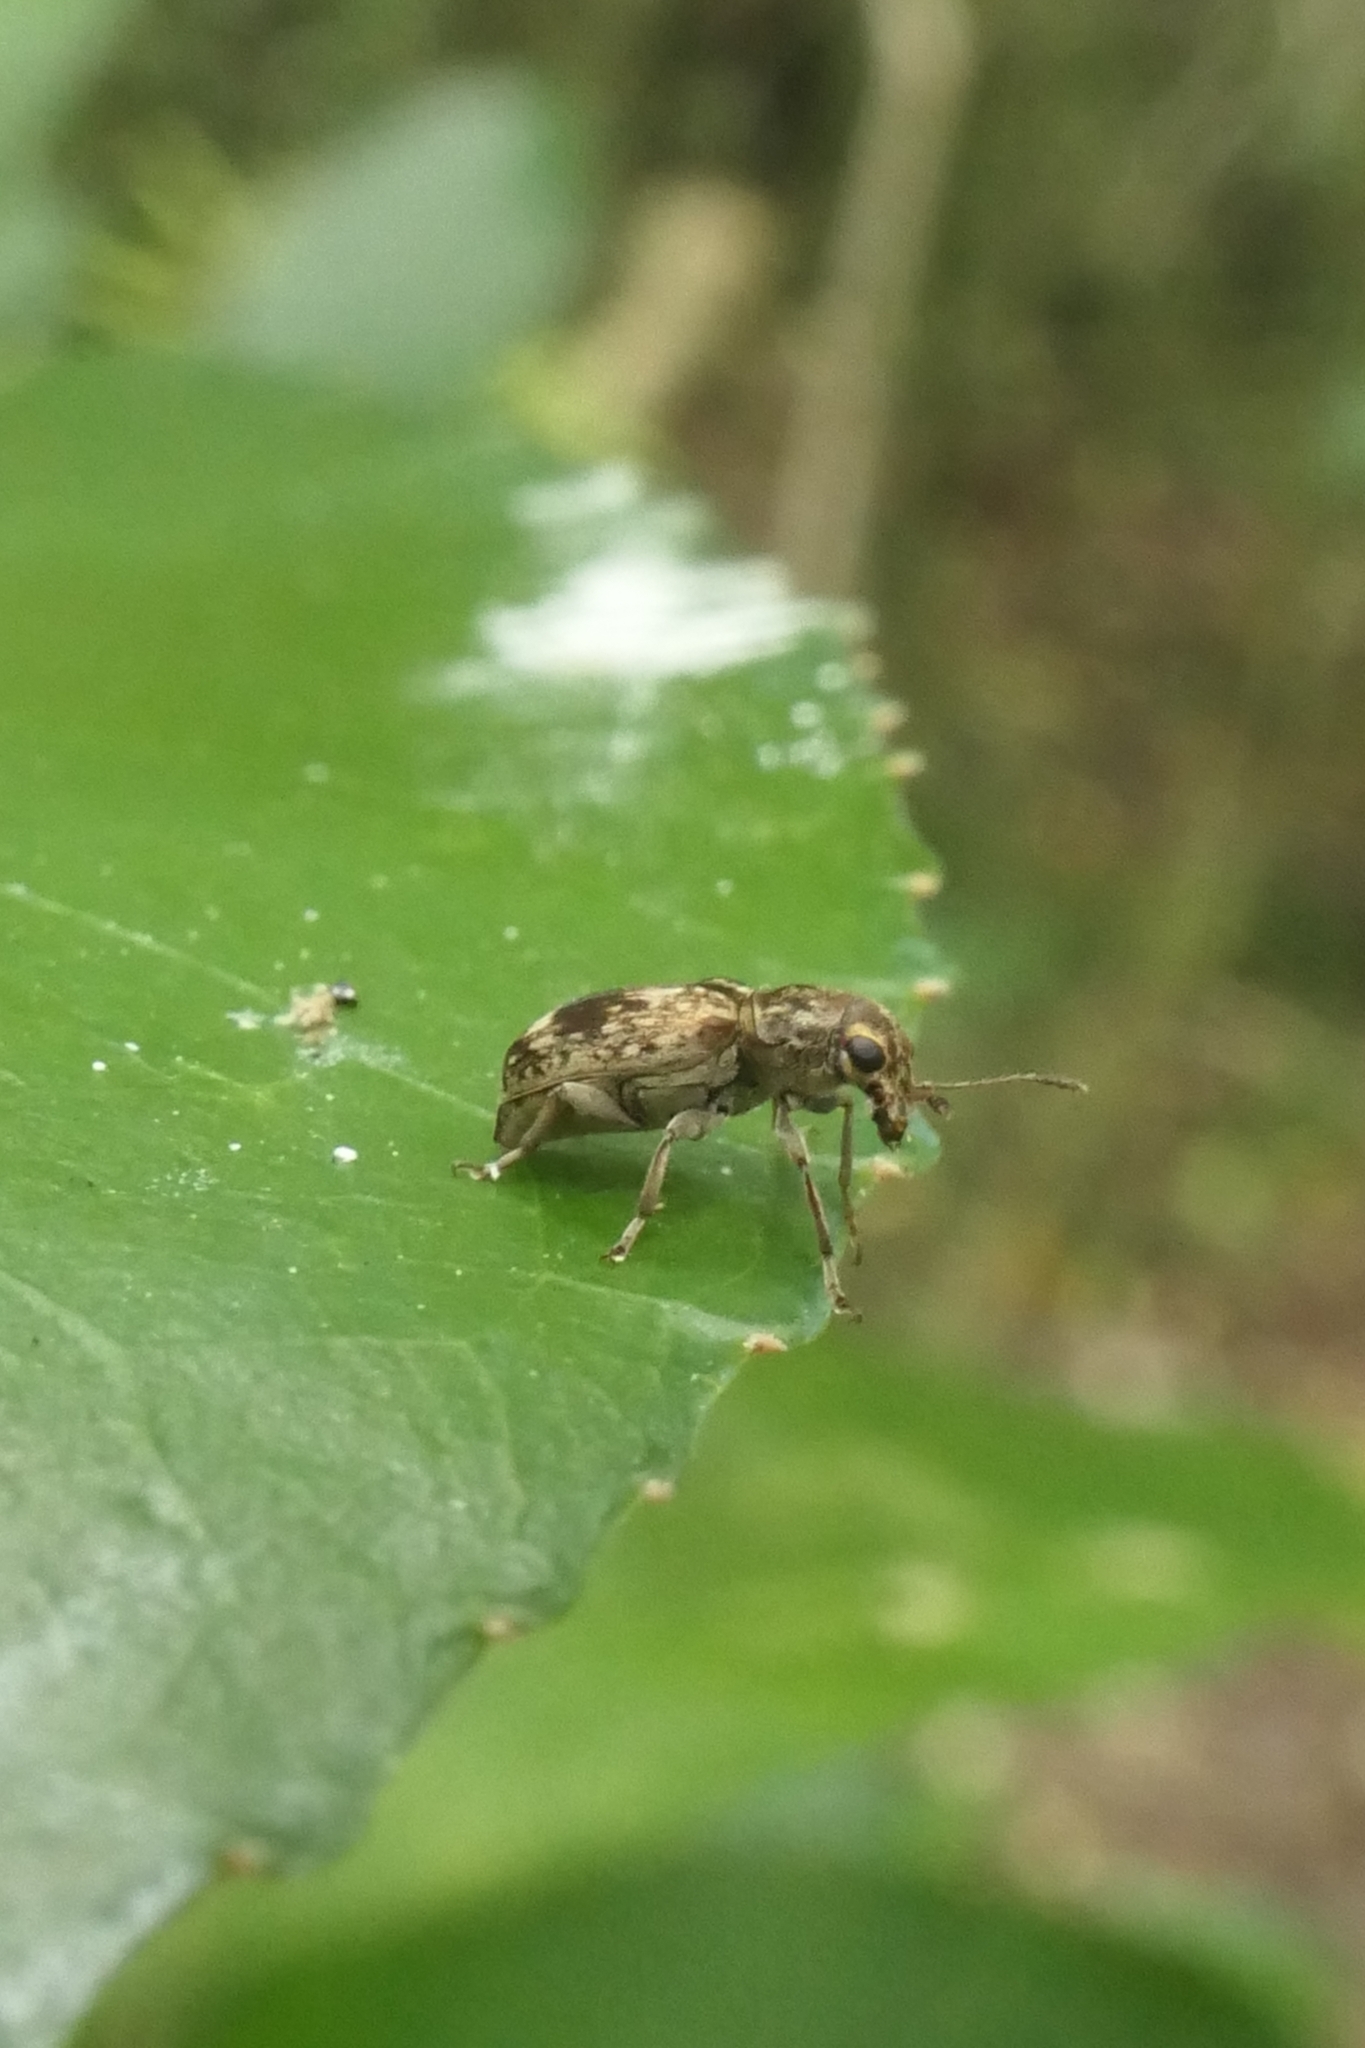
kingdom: Animalia
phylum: Arthropoda
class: Insecta
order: Coleoptera
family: Anthribidae
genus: Cacephatus
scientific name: Cacephatus huttoni
